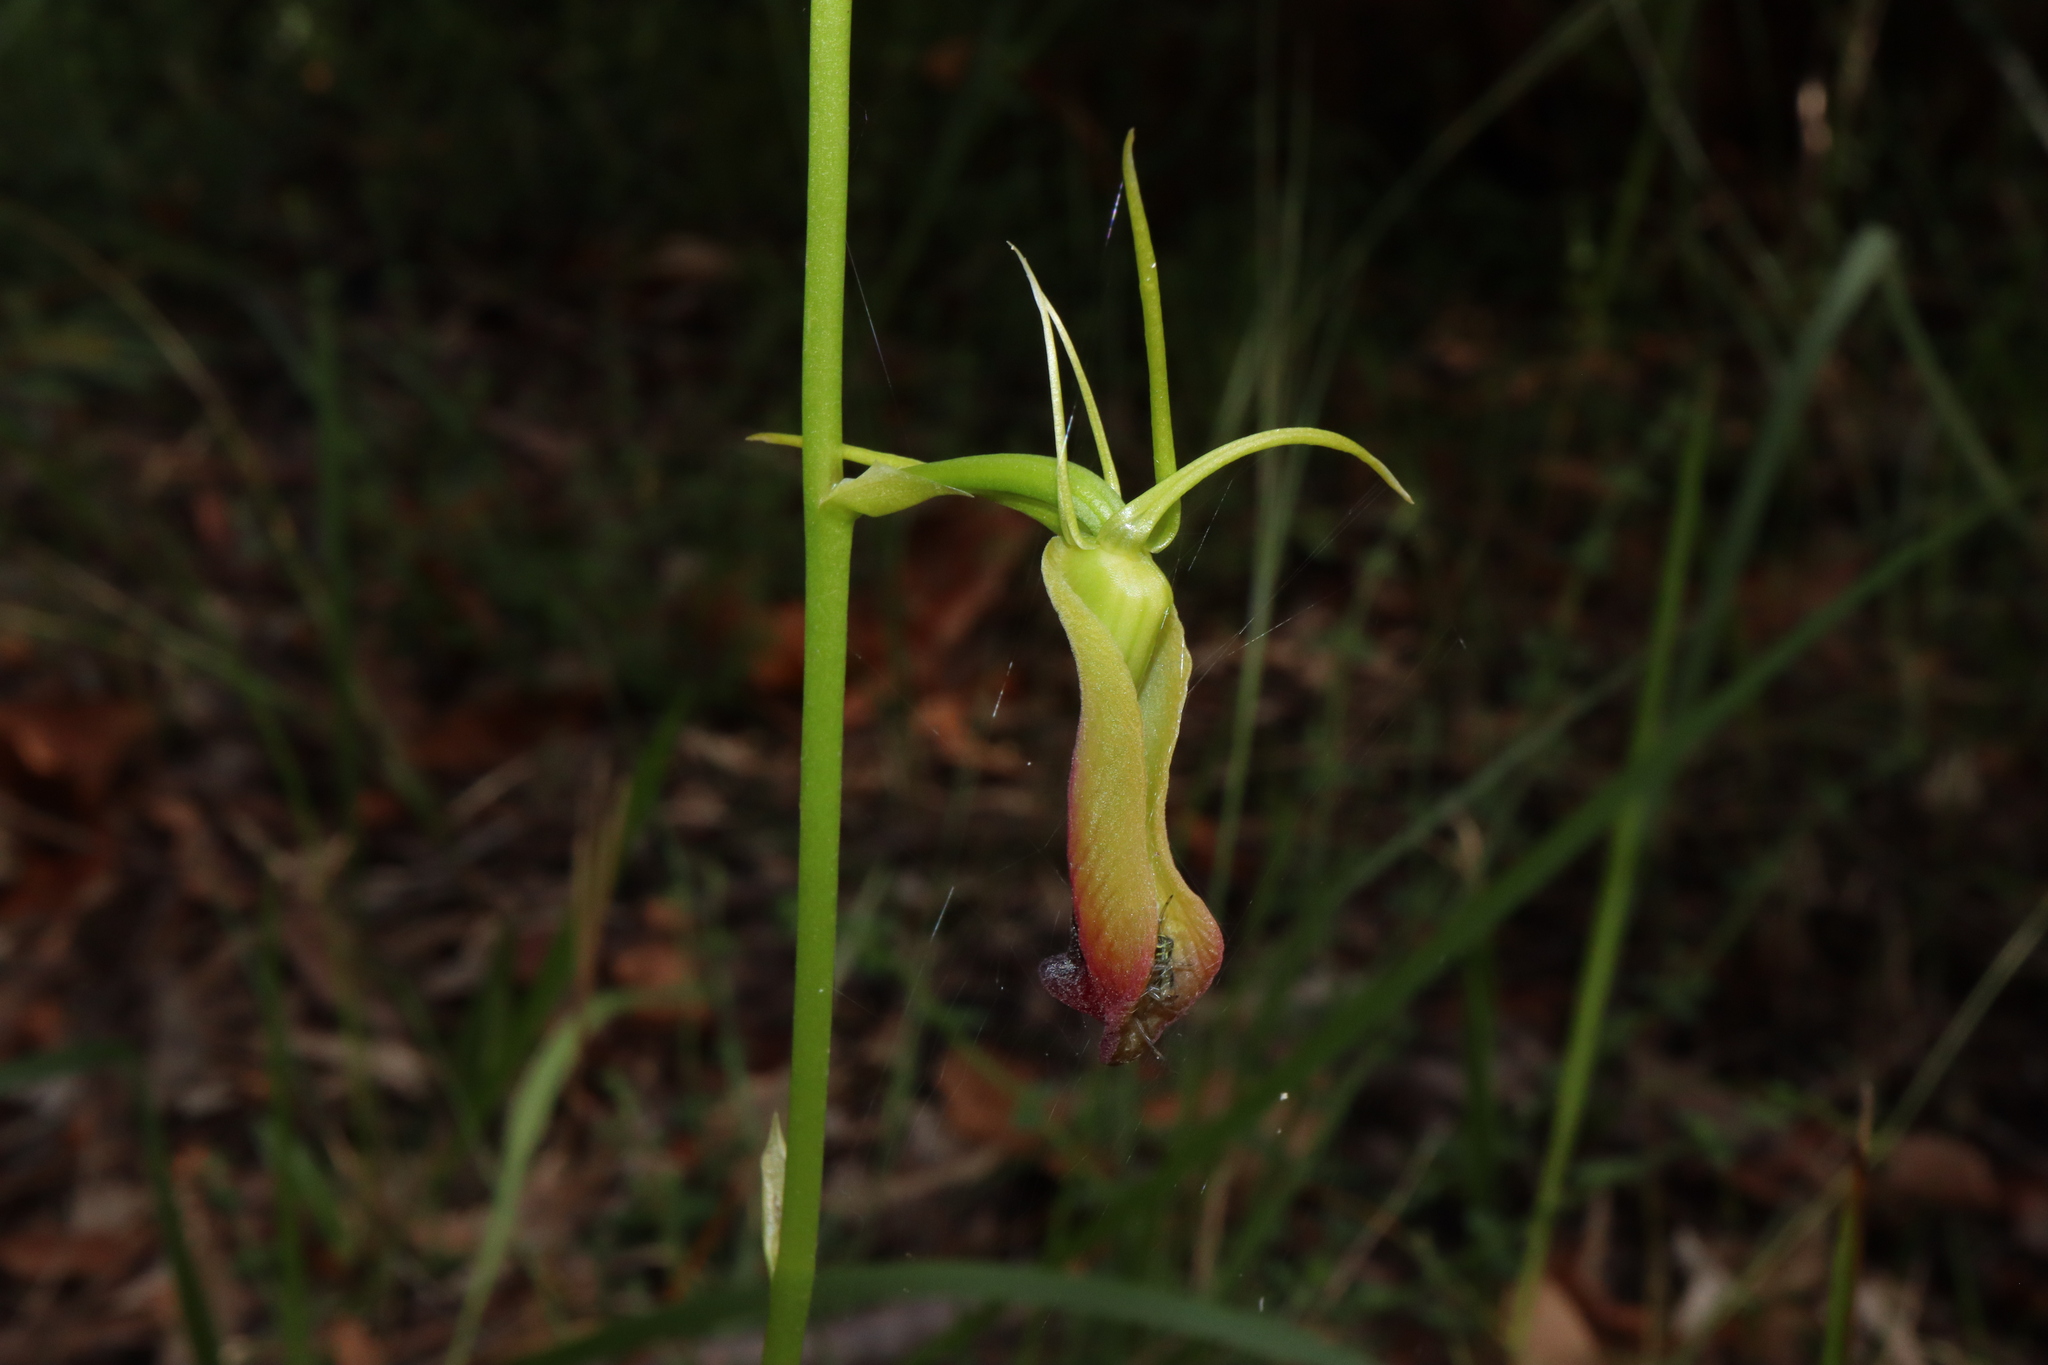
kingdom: Plantae
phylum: Tracheophyta
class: Liliopsida
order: Asparagales
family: Orchidaceae
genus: Cryptostylis
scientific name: Cryptostylis subulata
